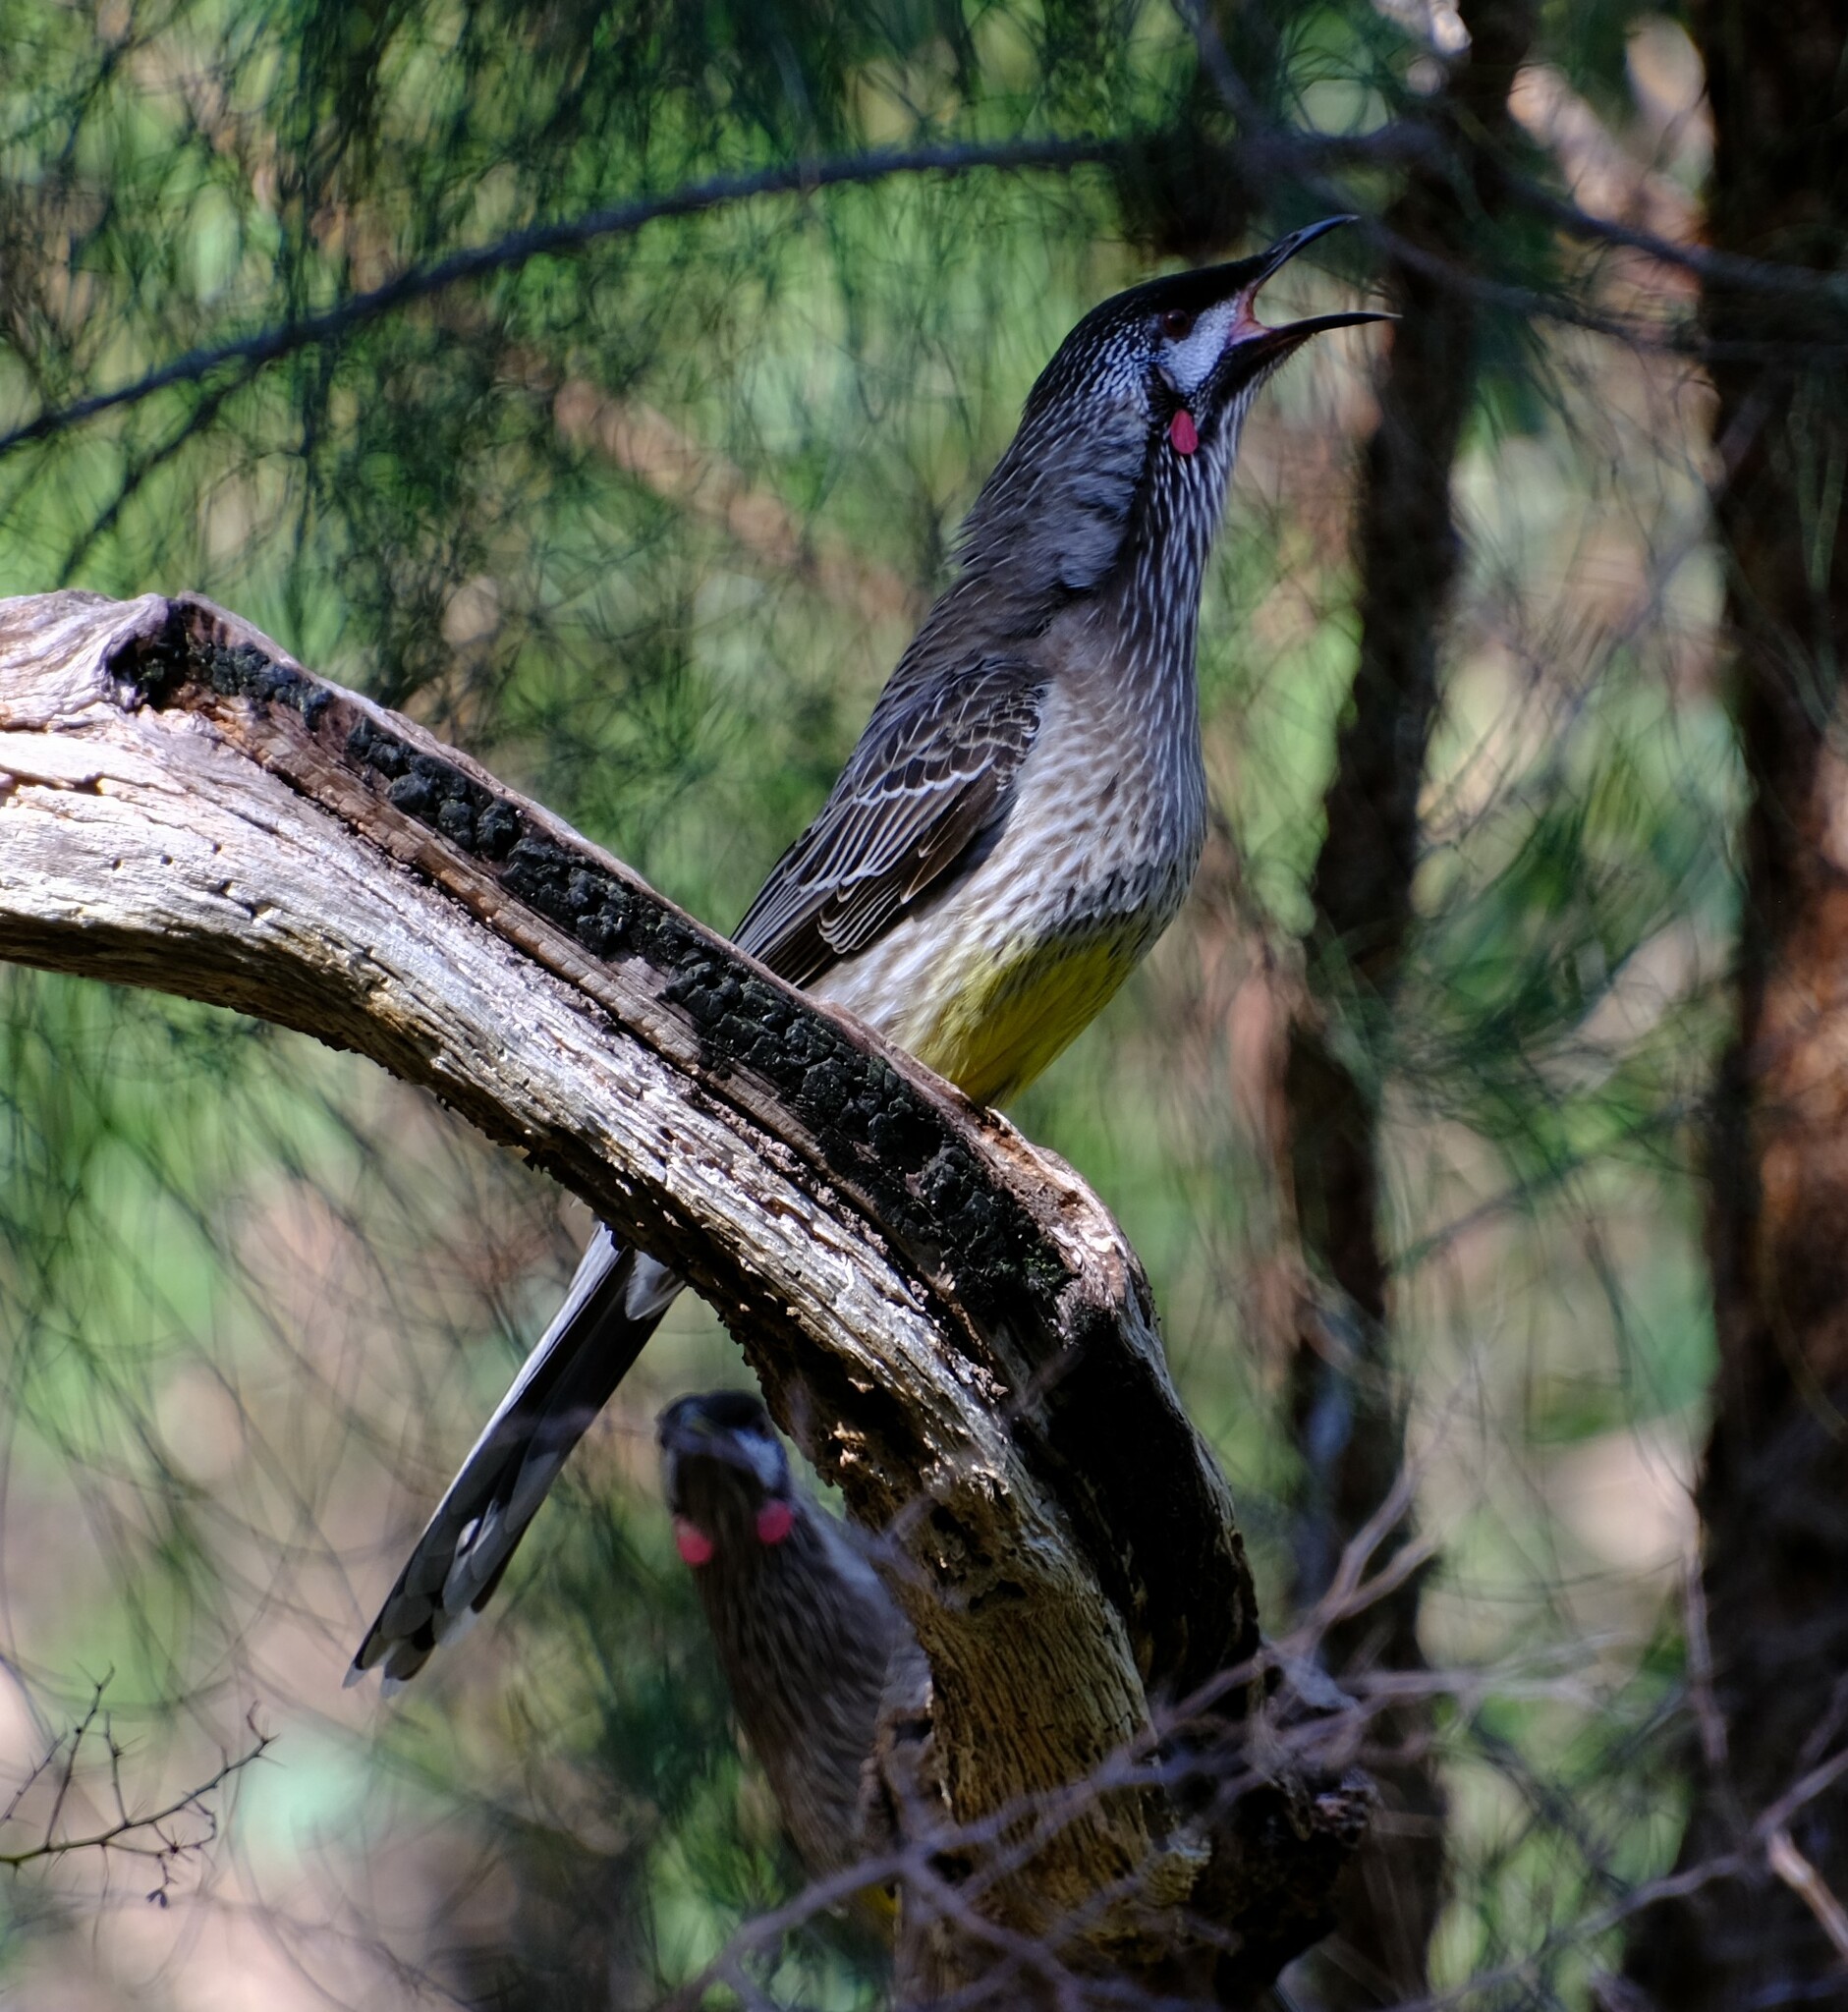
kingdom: Animalia
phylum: Chordata
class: Aves
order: Passeriformes
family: Meliphagidae
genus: Anthochaera
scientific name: Anthochaera carunculata
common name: Red wattlebird
